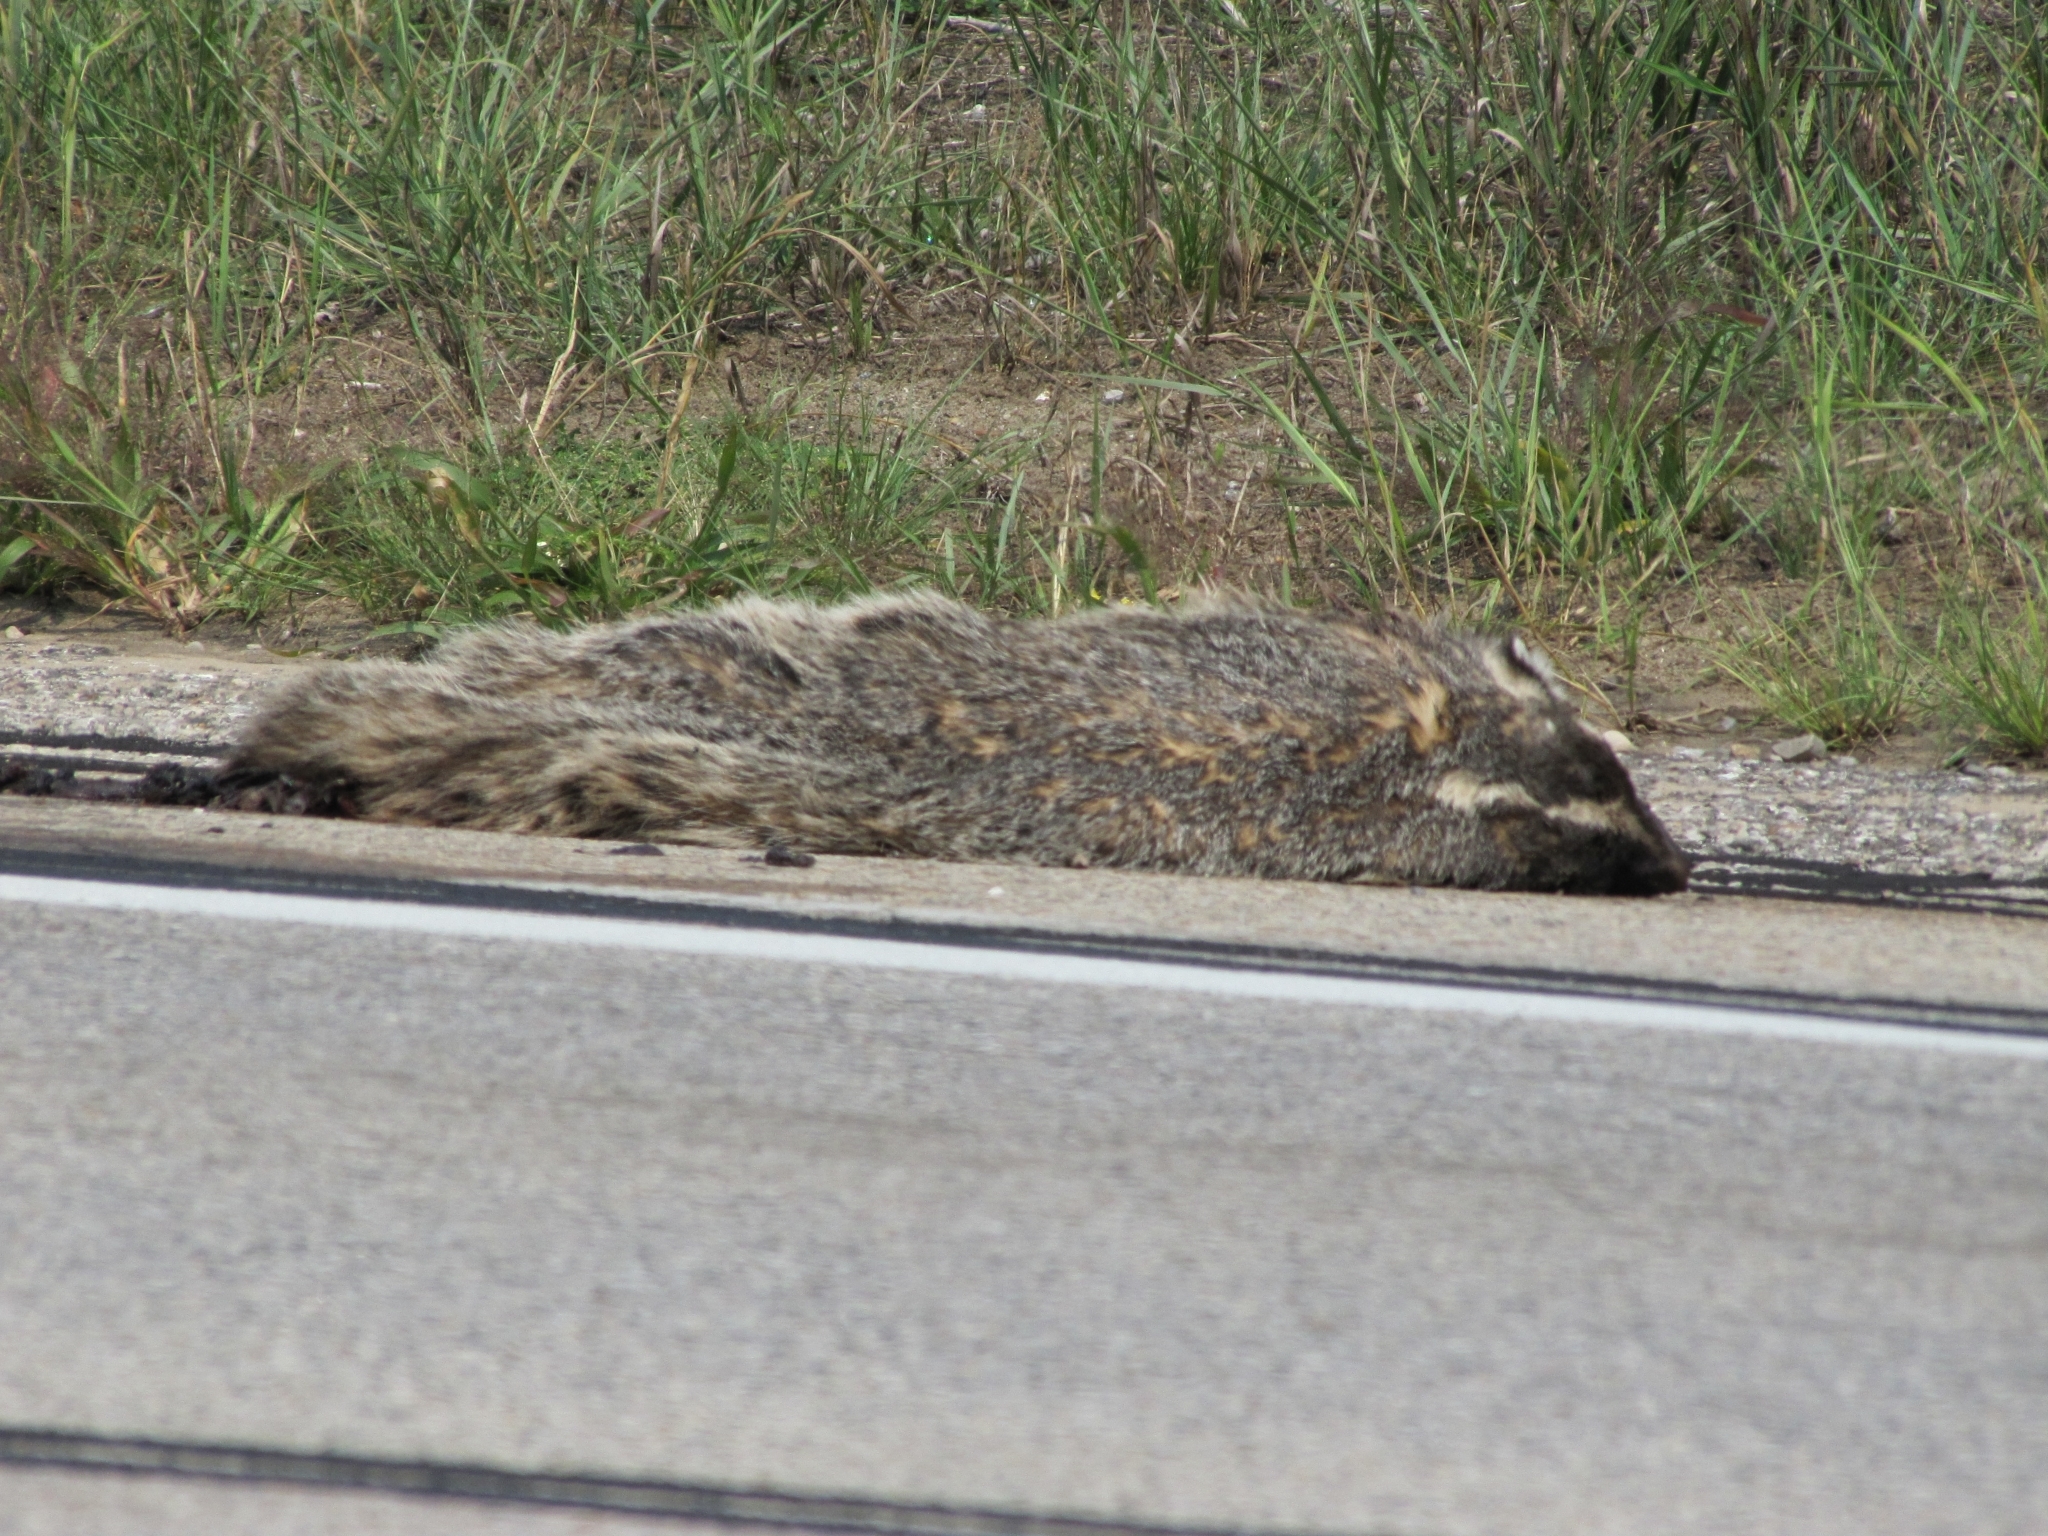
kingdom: Animalia
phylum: Chordata
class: Mammalia
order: Carnivora
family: Mustelidae
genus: Taxidea
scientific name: Taxidea taxus
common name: American badger
